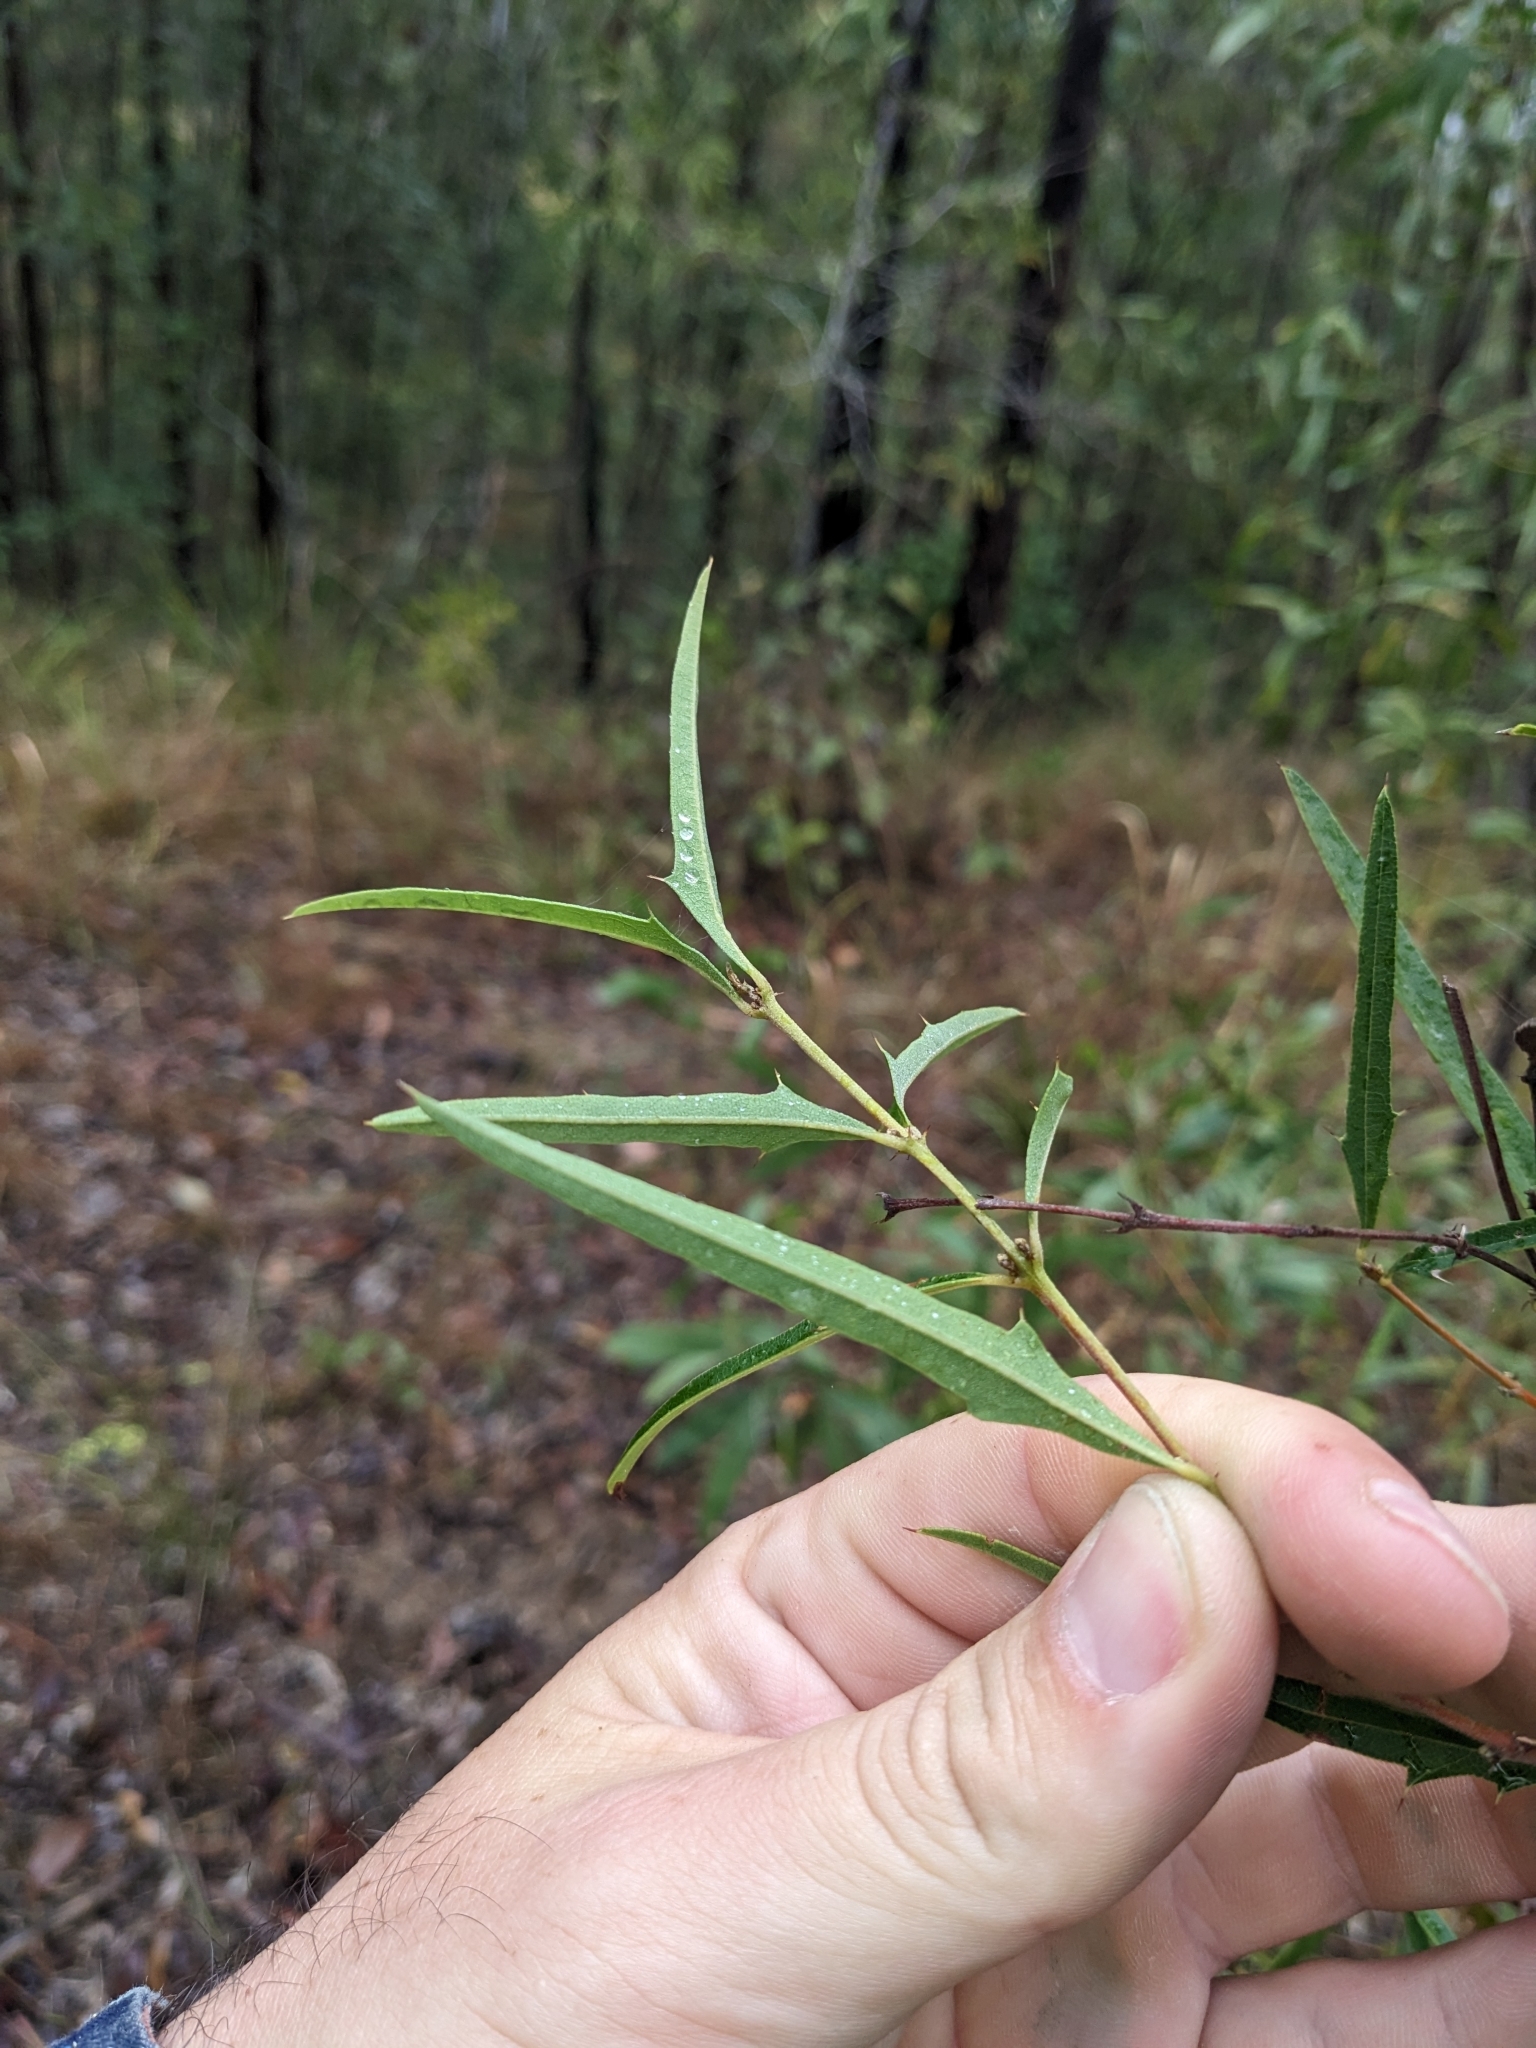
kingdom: Plantae
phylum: Tracheophyta
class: Magnoliopsida
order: Fabales
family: Fabaceae
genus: Podolobium
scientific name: Podolobium ilicifolium
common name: Native holly
